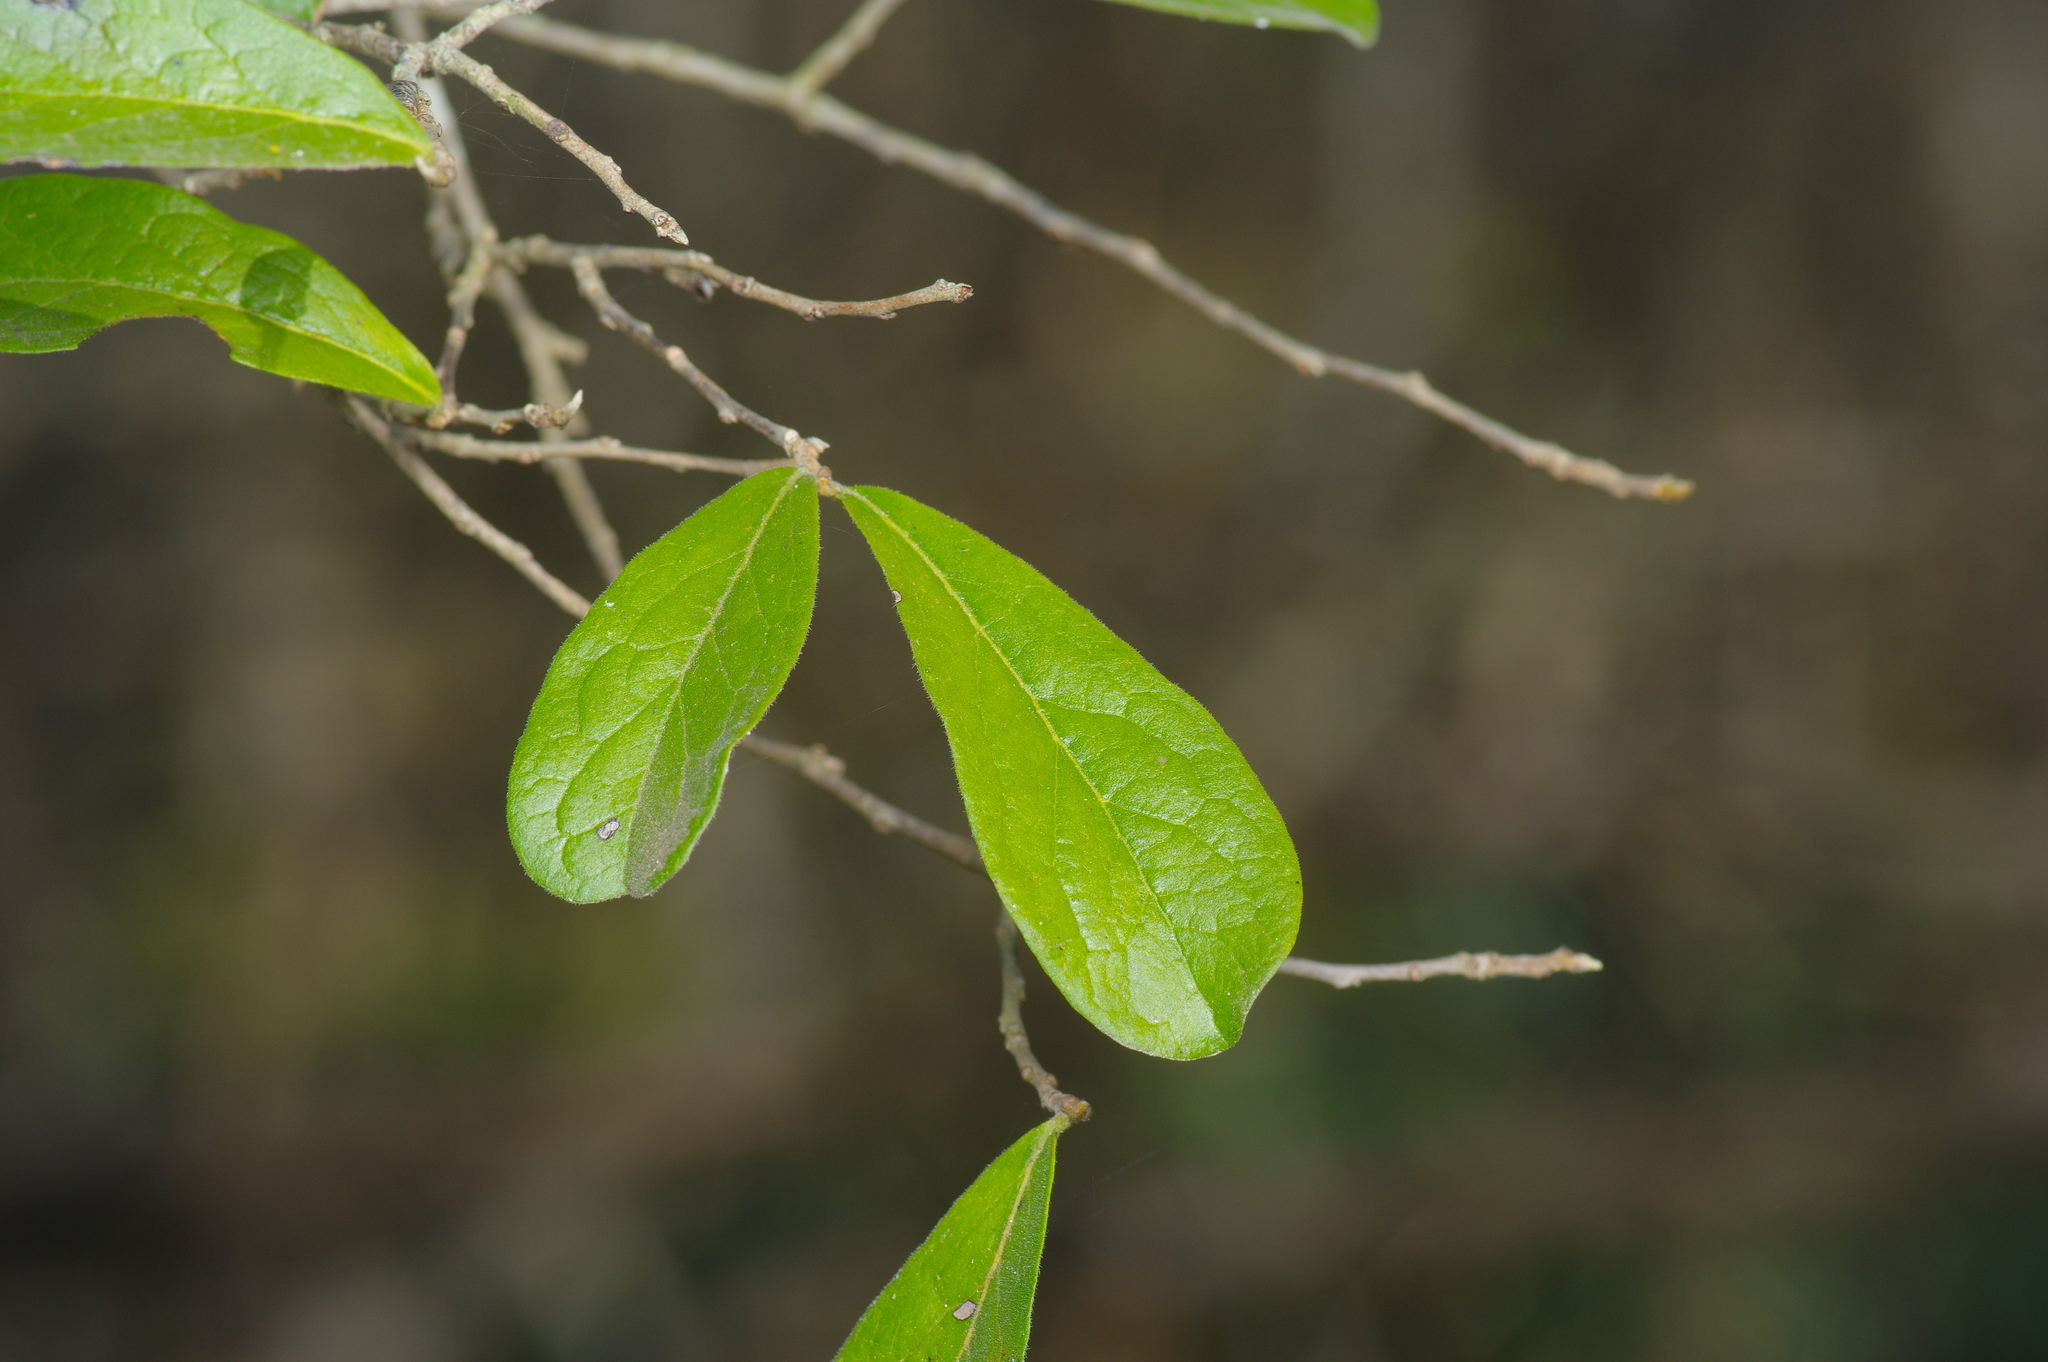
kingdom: Plantae
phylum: Tracheophyta
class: Magnoliopsida
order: Ericales
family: Ebenaceae
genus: Diospyros
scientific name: Diospyros texana
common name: Texas persimmon
